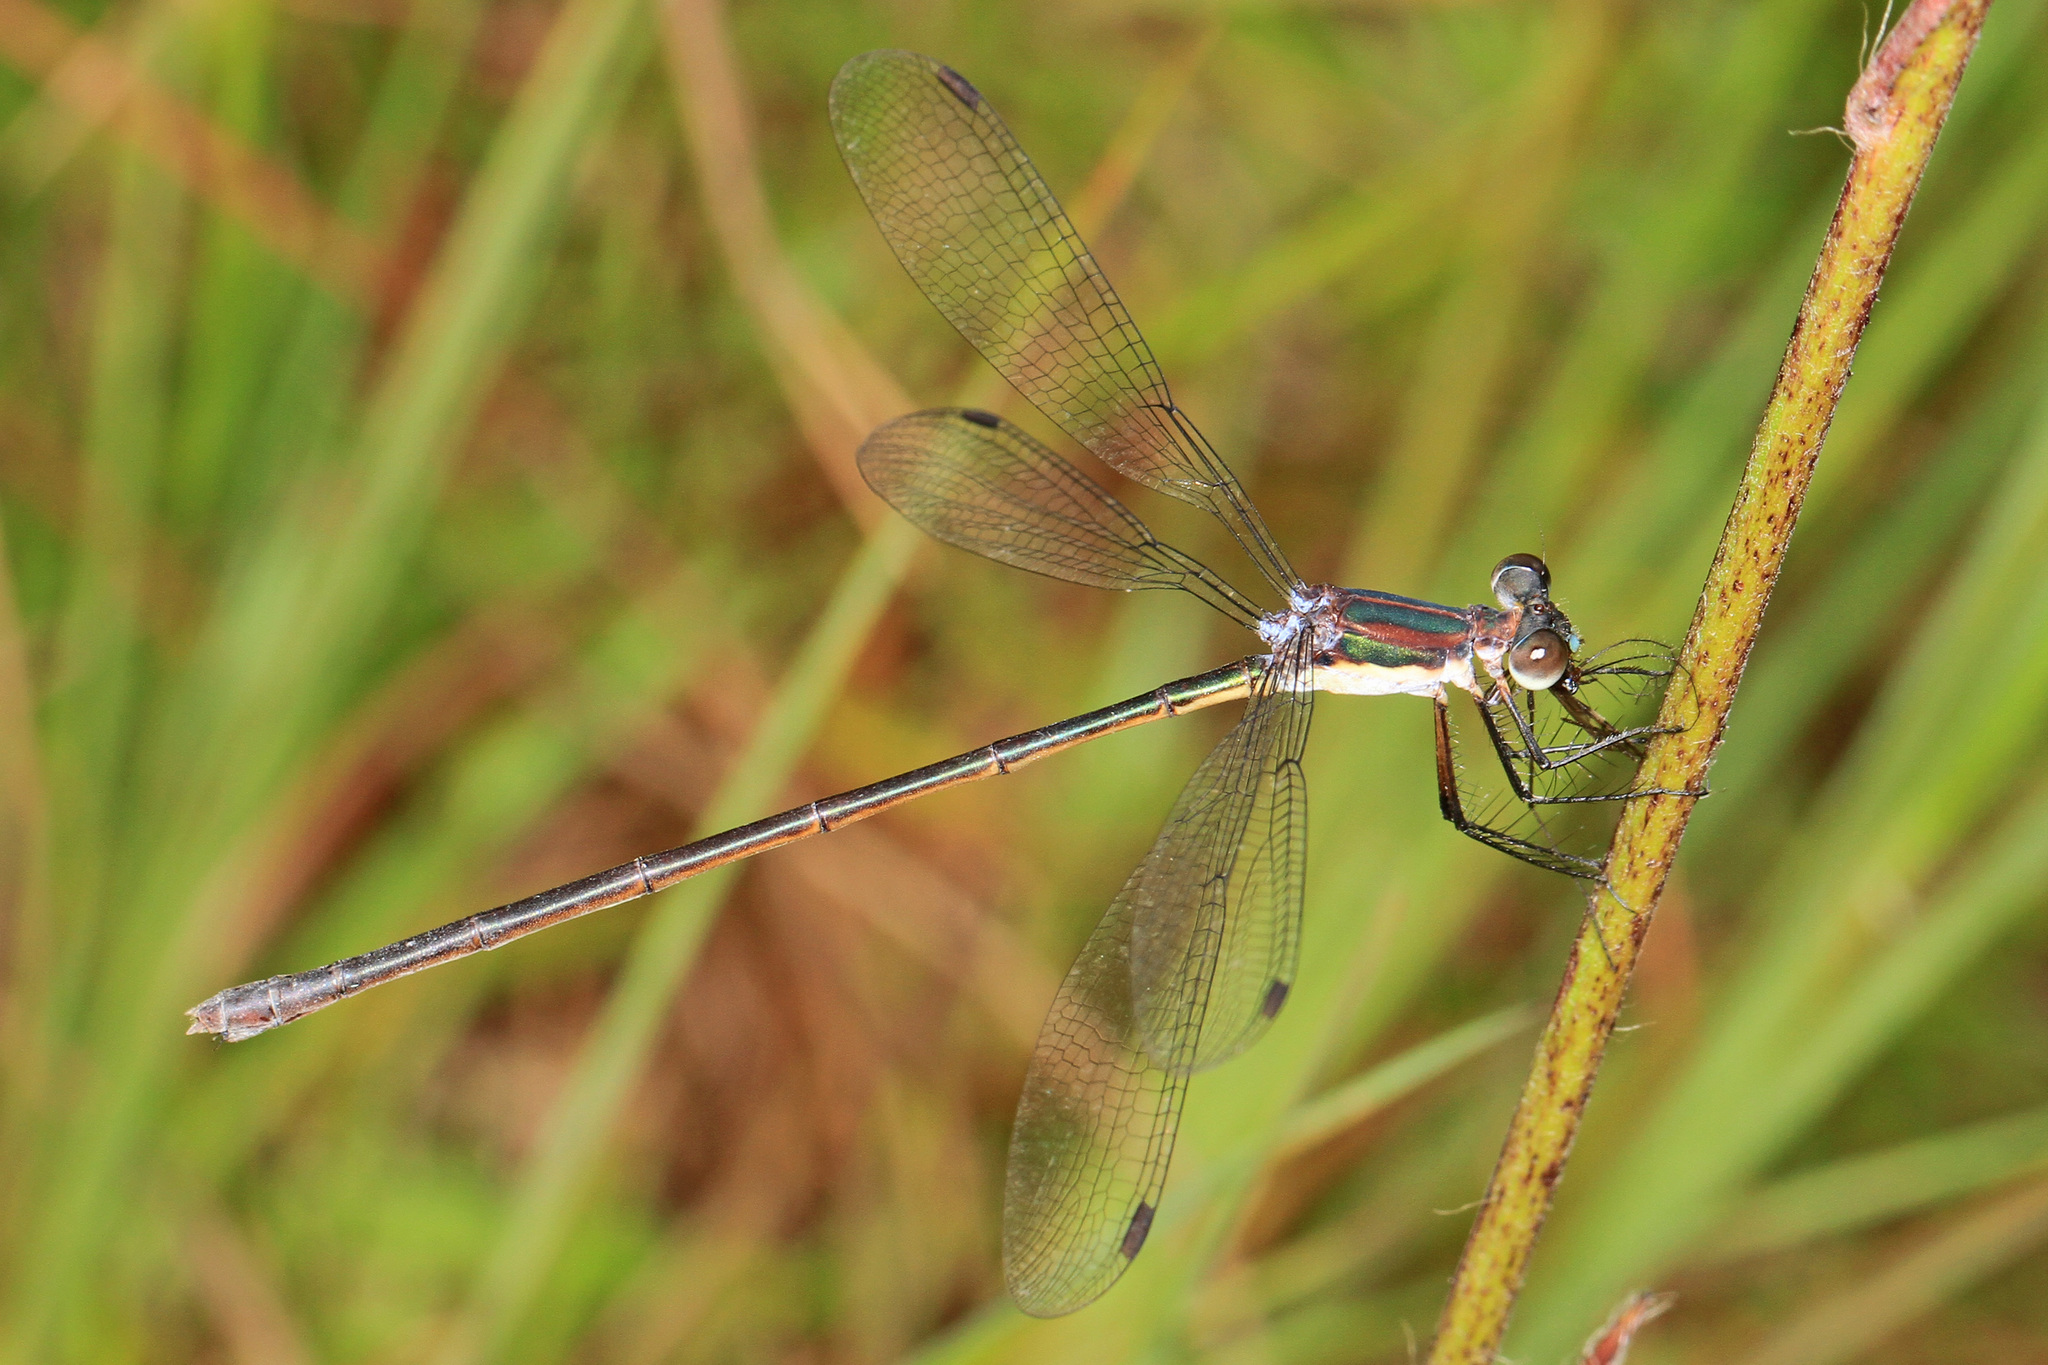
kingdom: Animalia
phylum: Arthropoda
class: Insecta
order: Odonata
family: Lestidae
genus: Lestes
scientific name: Lestes vigilax
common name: Swamp spreadwing
